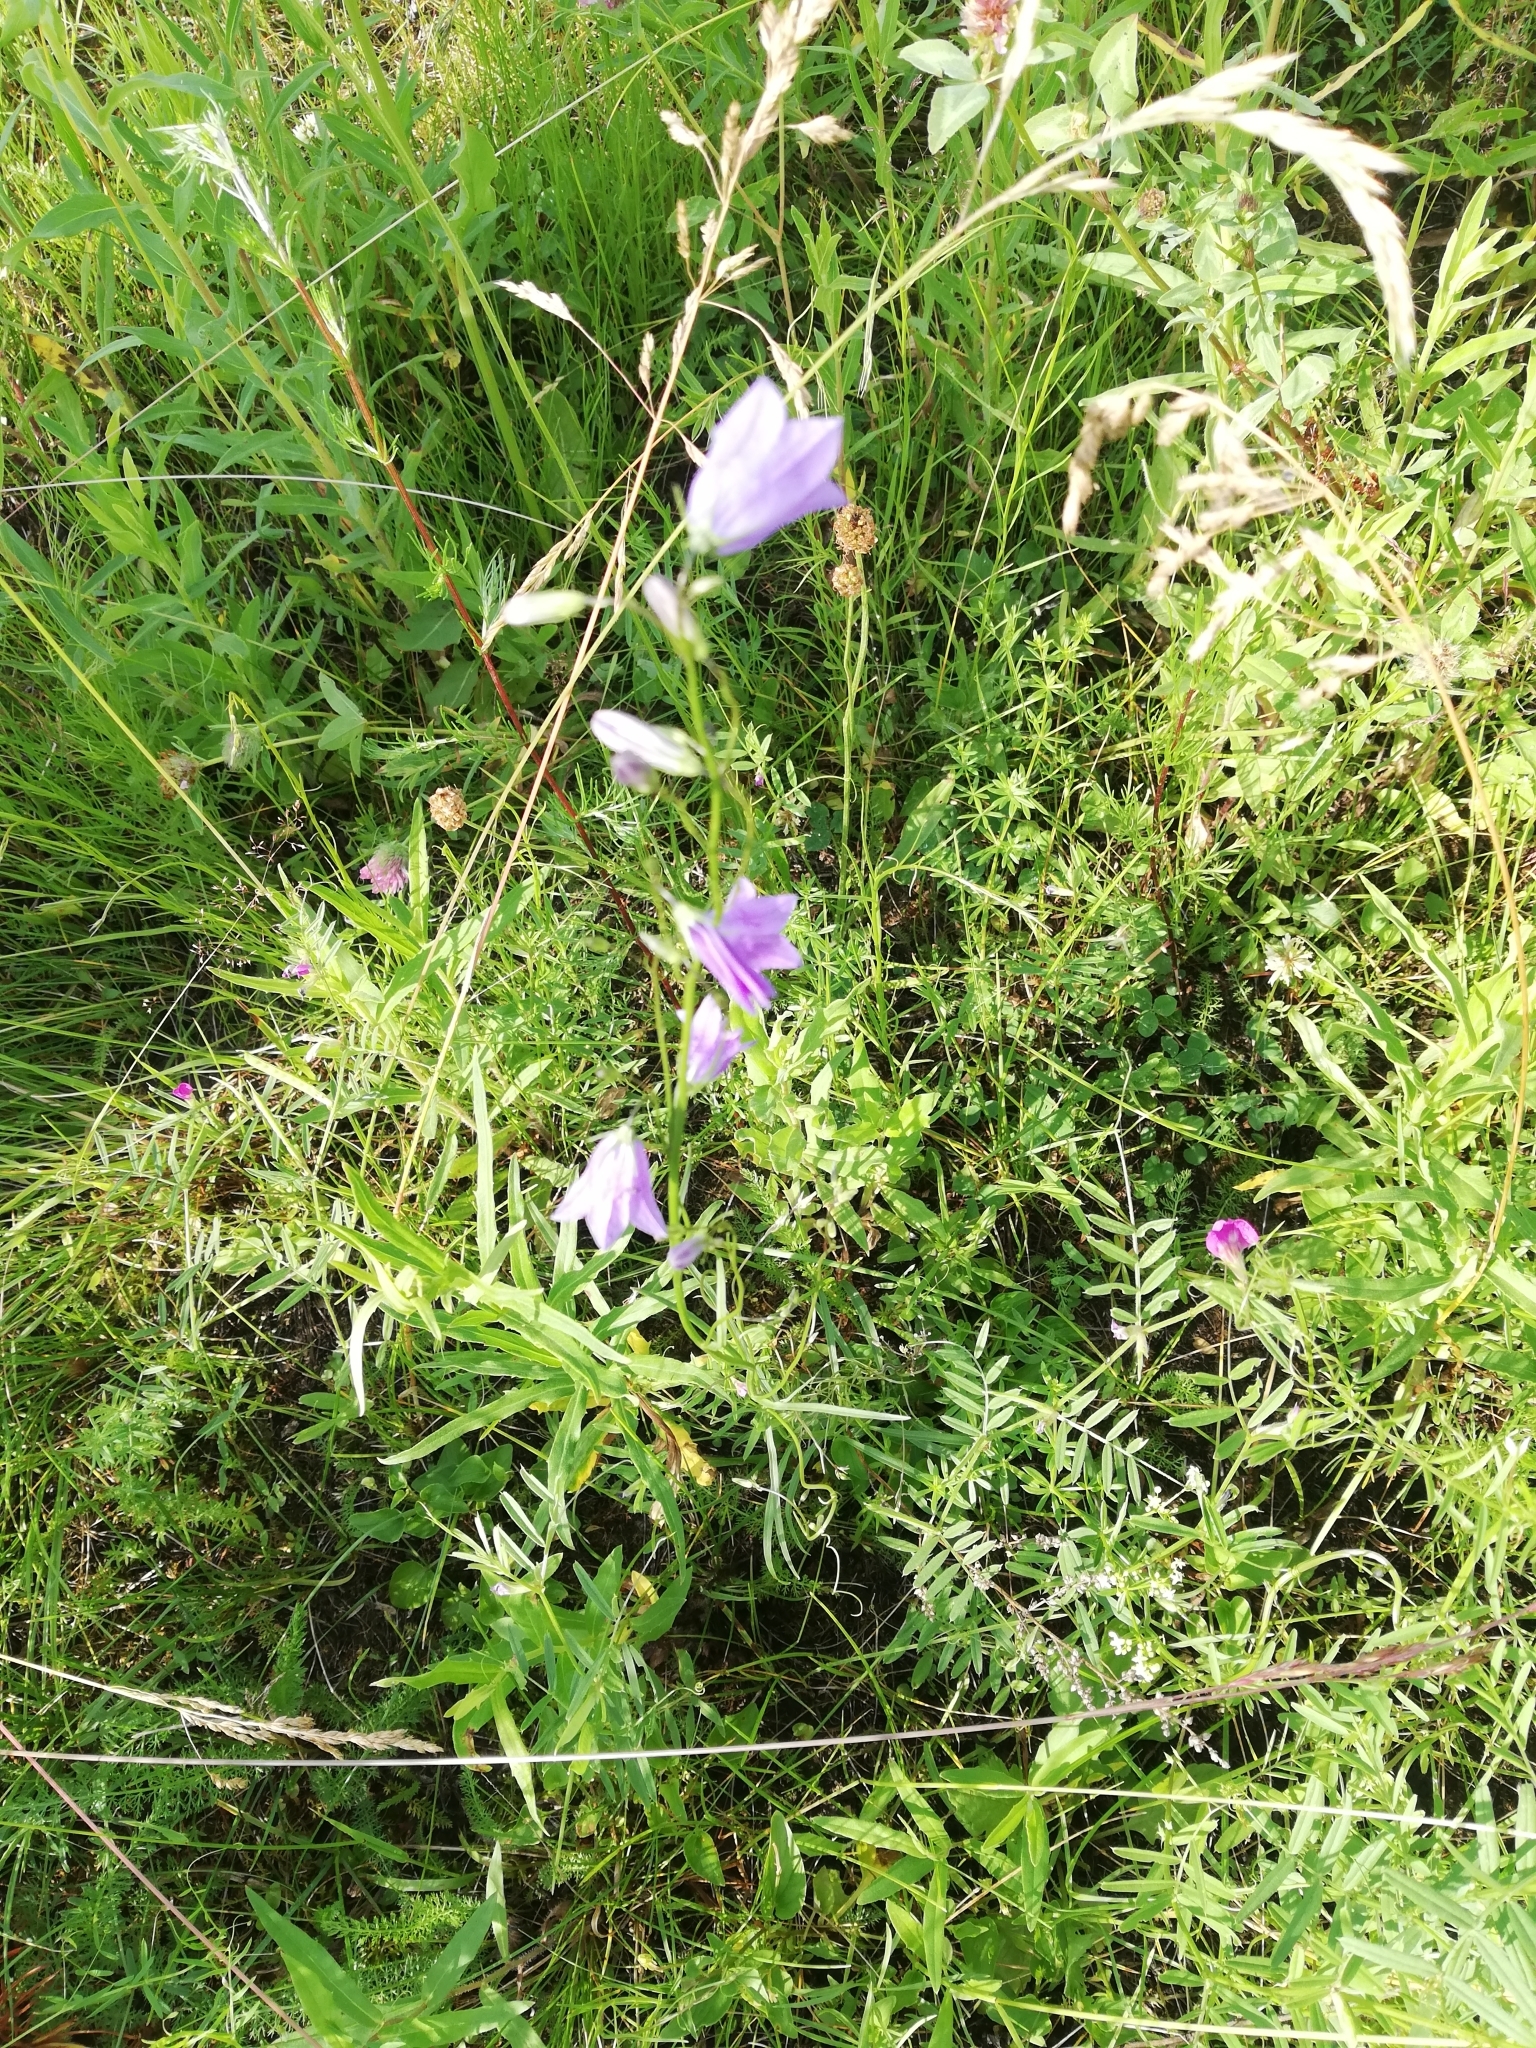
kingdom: Plantae
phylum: Tracheophyta
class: Magnoliopsida
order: Asterales
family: Campanulaceae
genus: Campanula
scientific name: Campanula rotundifolia
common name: Harebell
